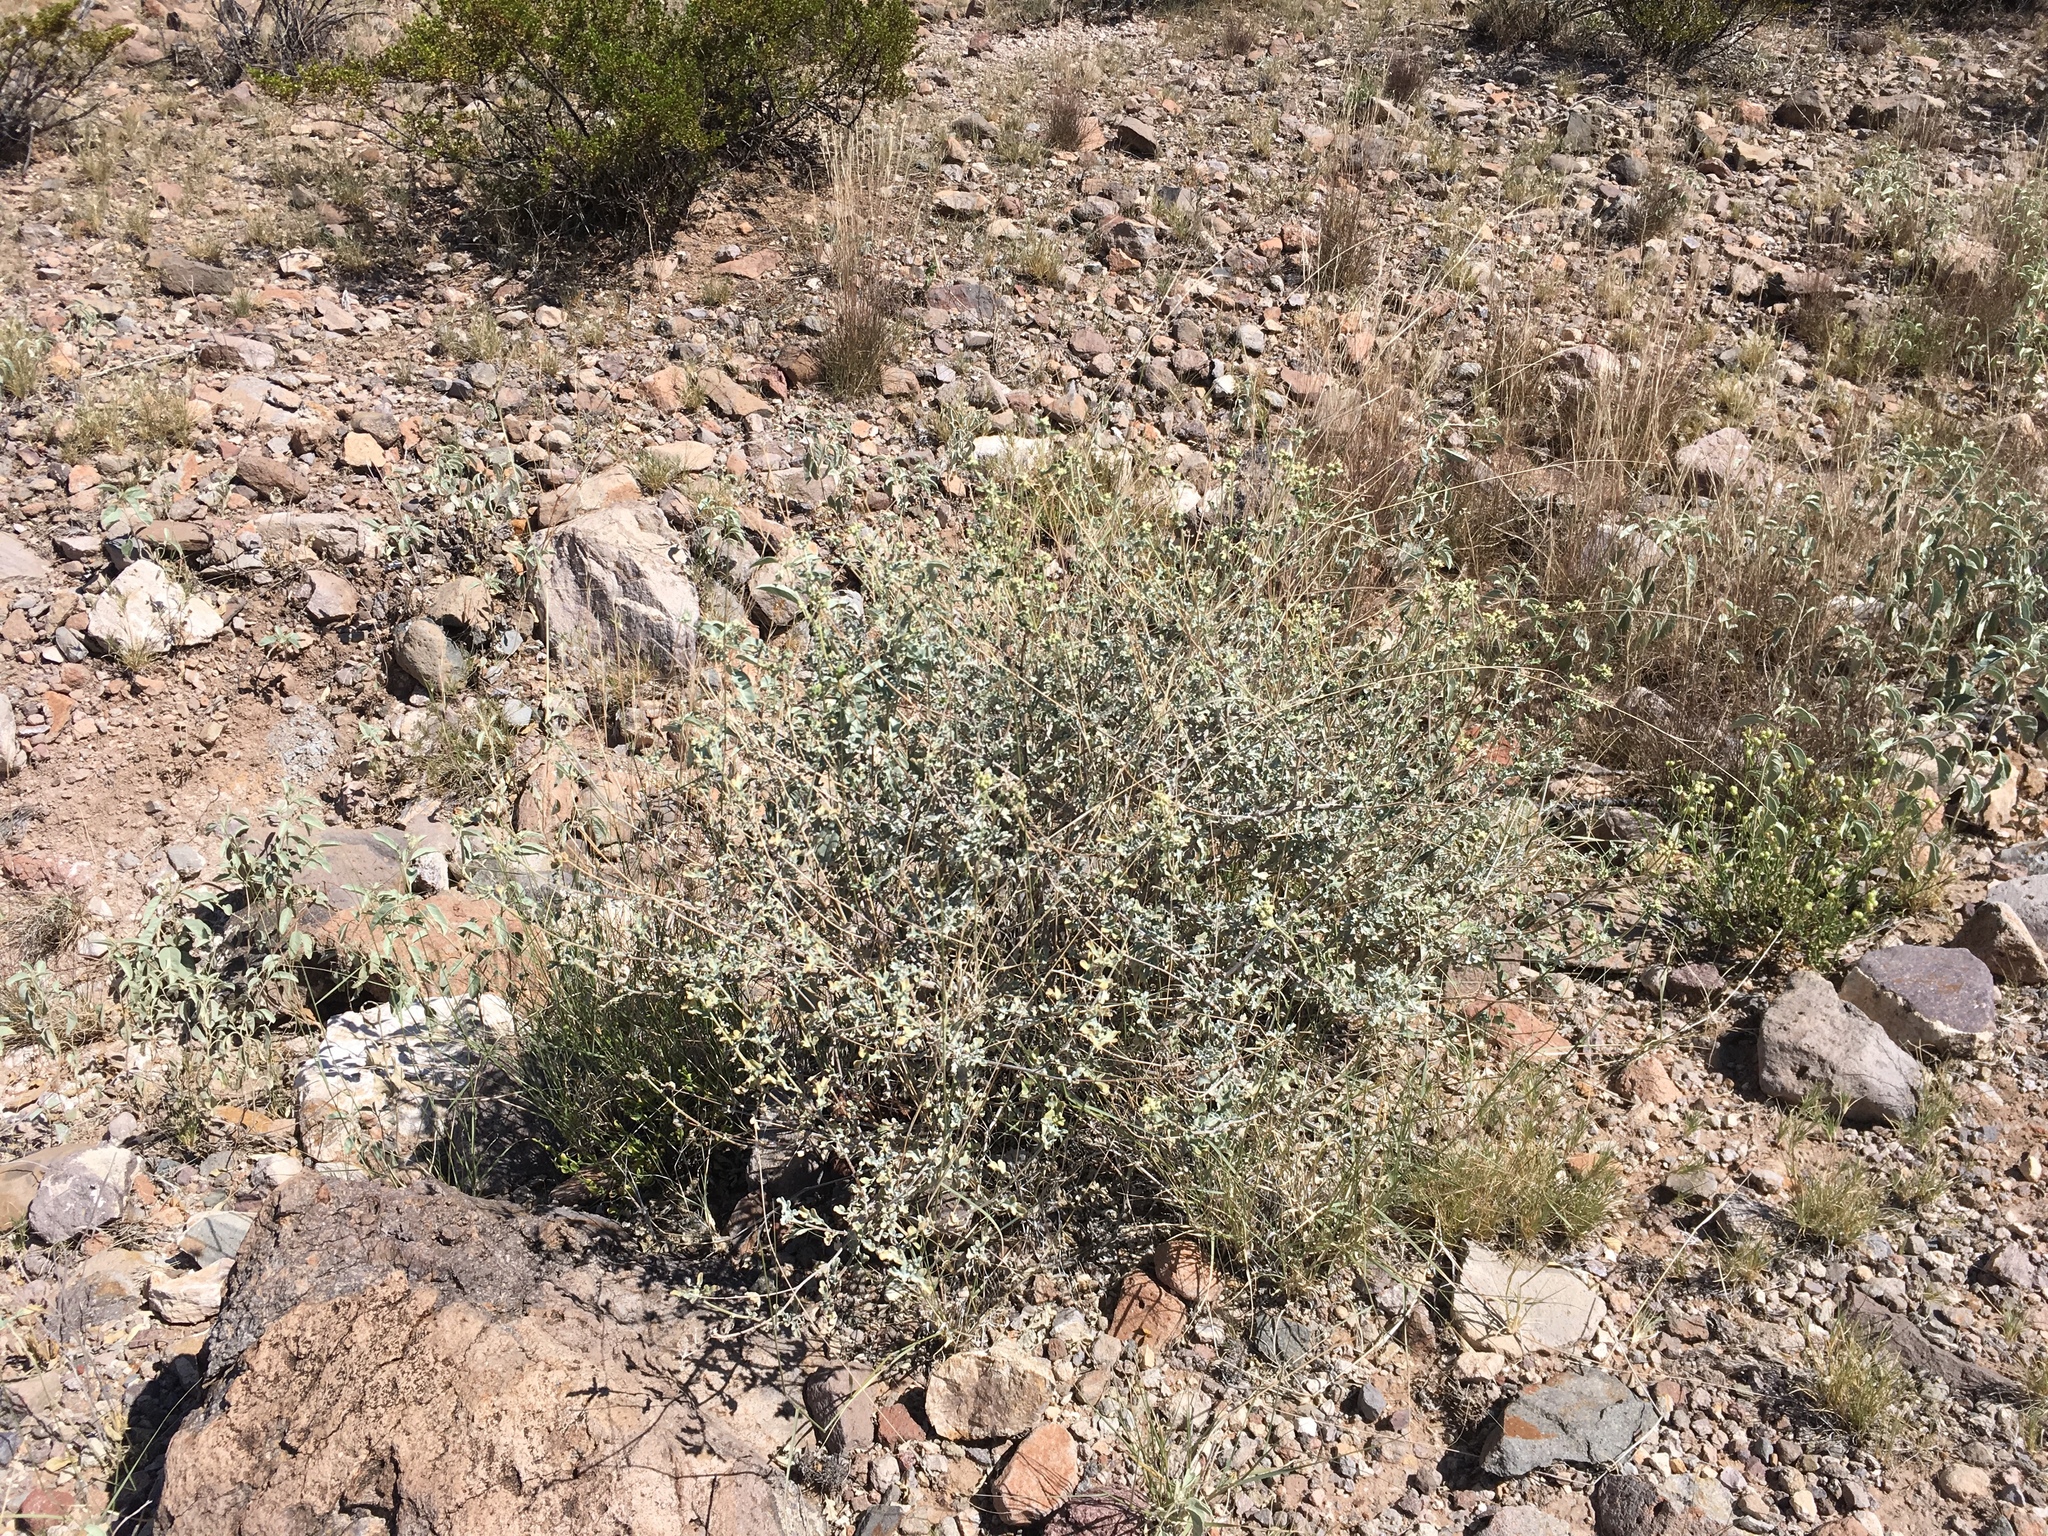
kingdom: Plantae
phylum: Tracheophyta
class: Magnoliopsida
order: Asterales
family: Asteraceae
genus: Parthenium
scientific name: Parthenium incanum
